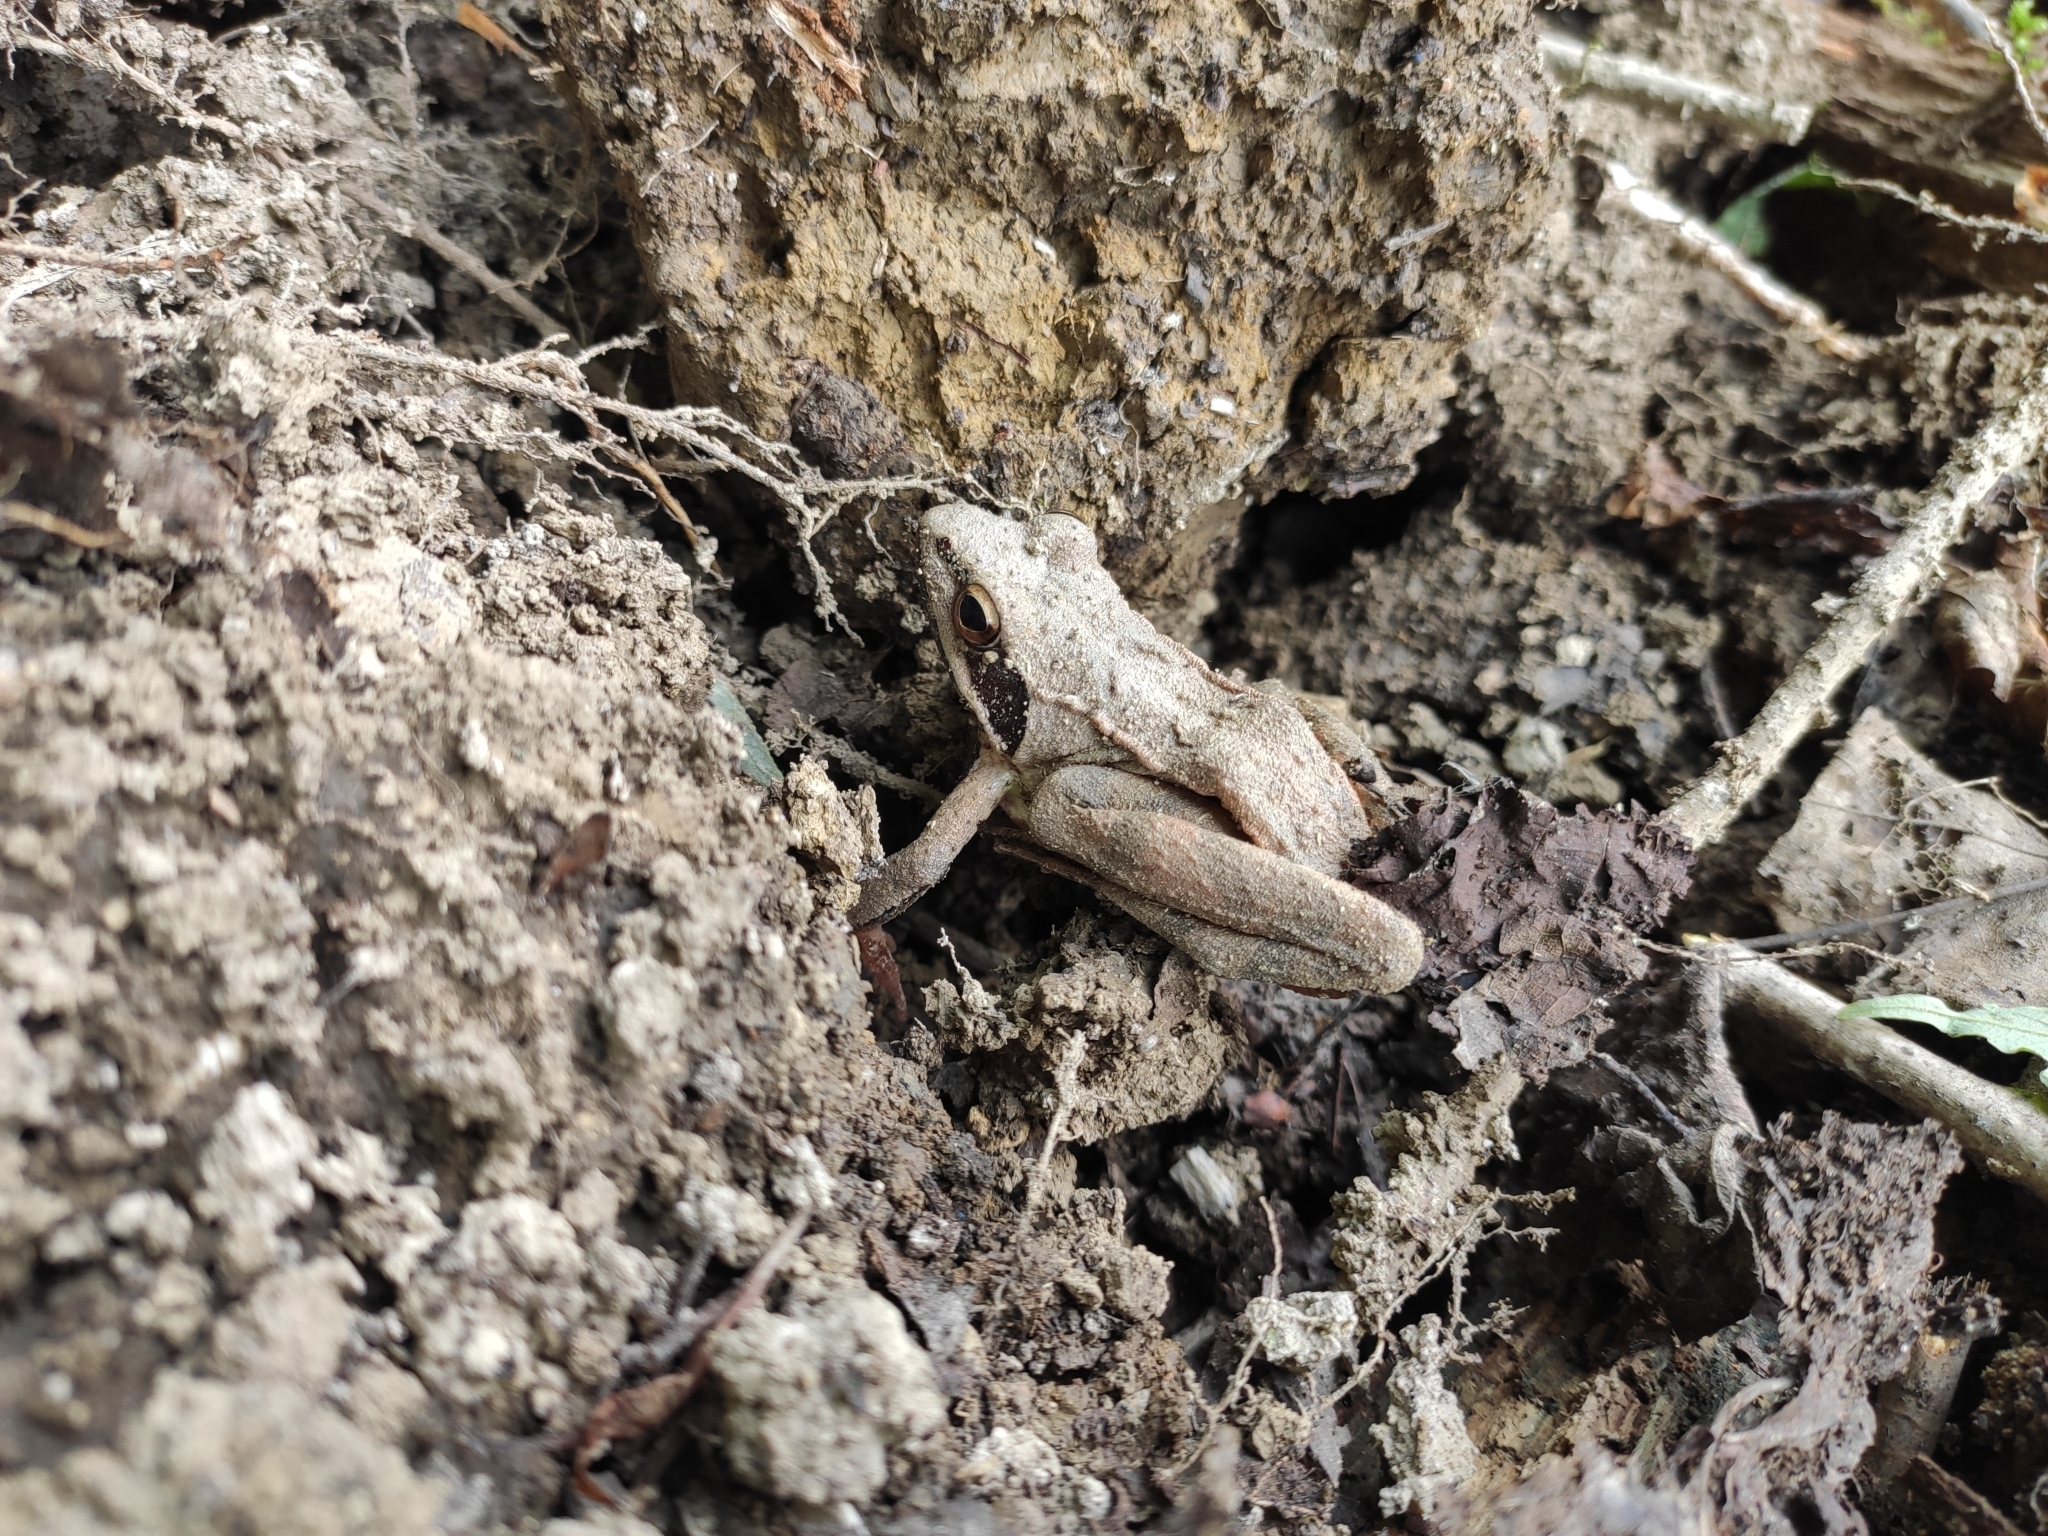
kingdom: Animalia
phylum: Chordata
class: Amphibia
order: Anura
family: Ranidae
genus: Rana
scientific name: Rana macrocnemis
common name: Banded frog
